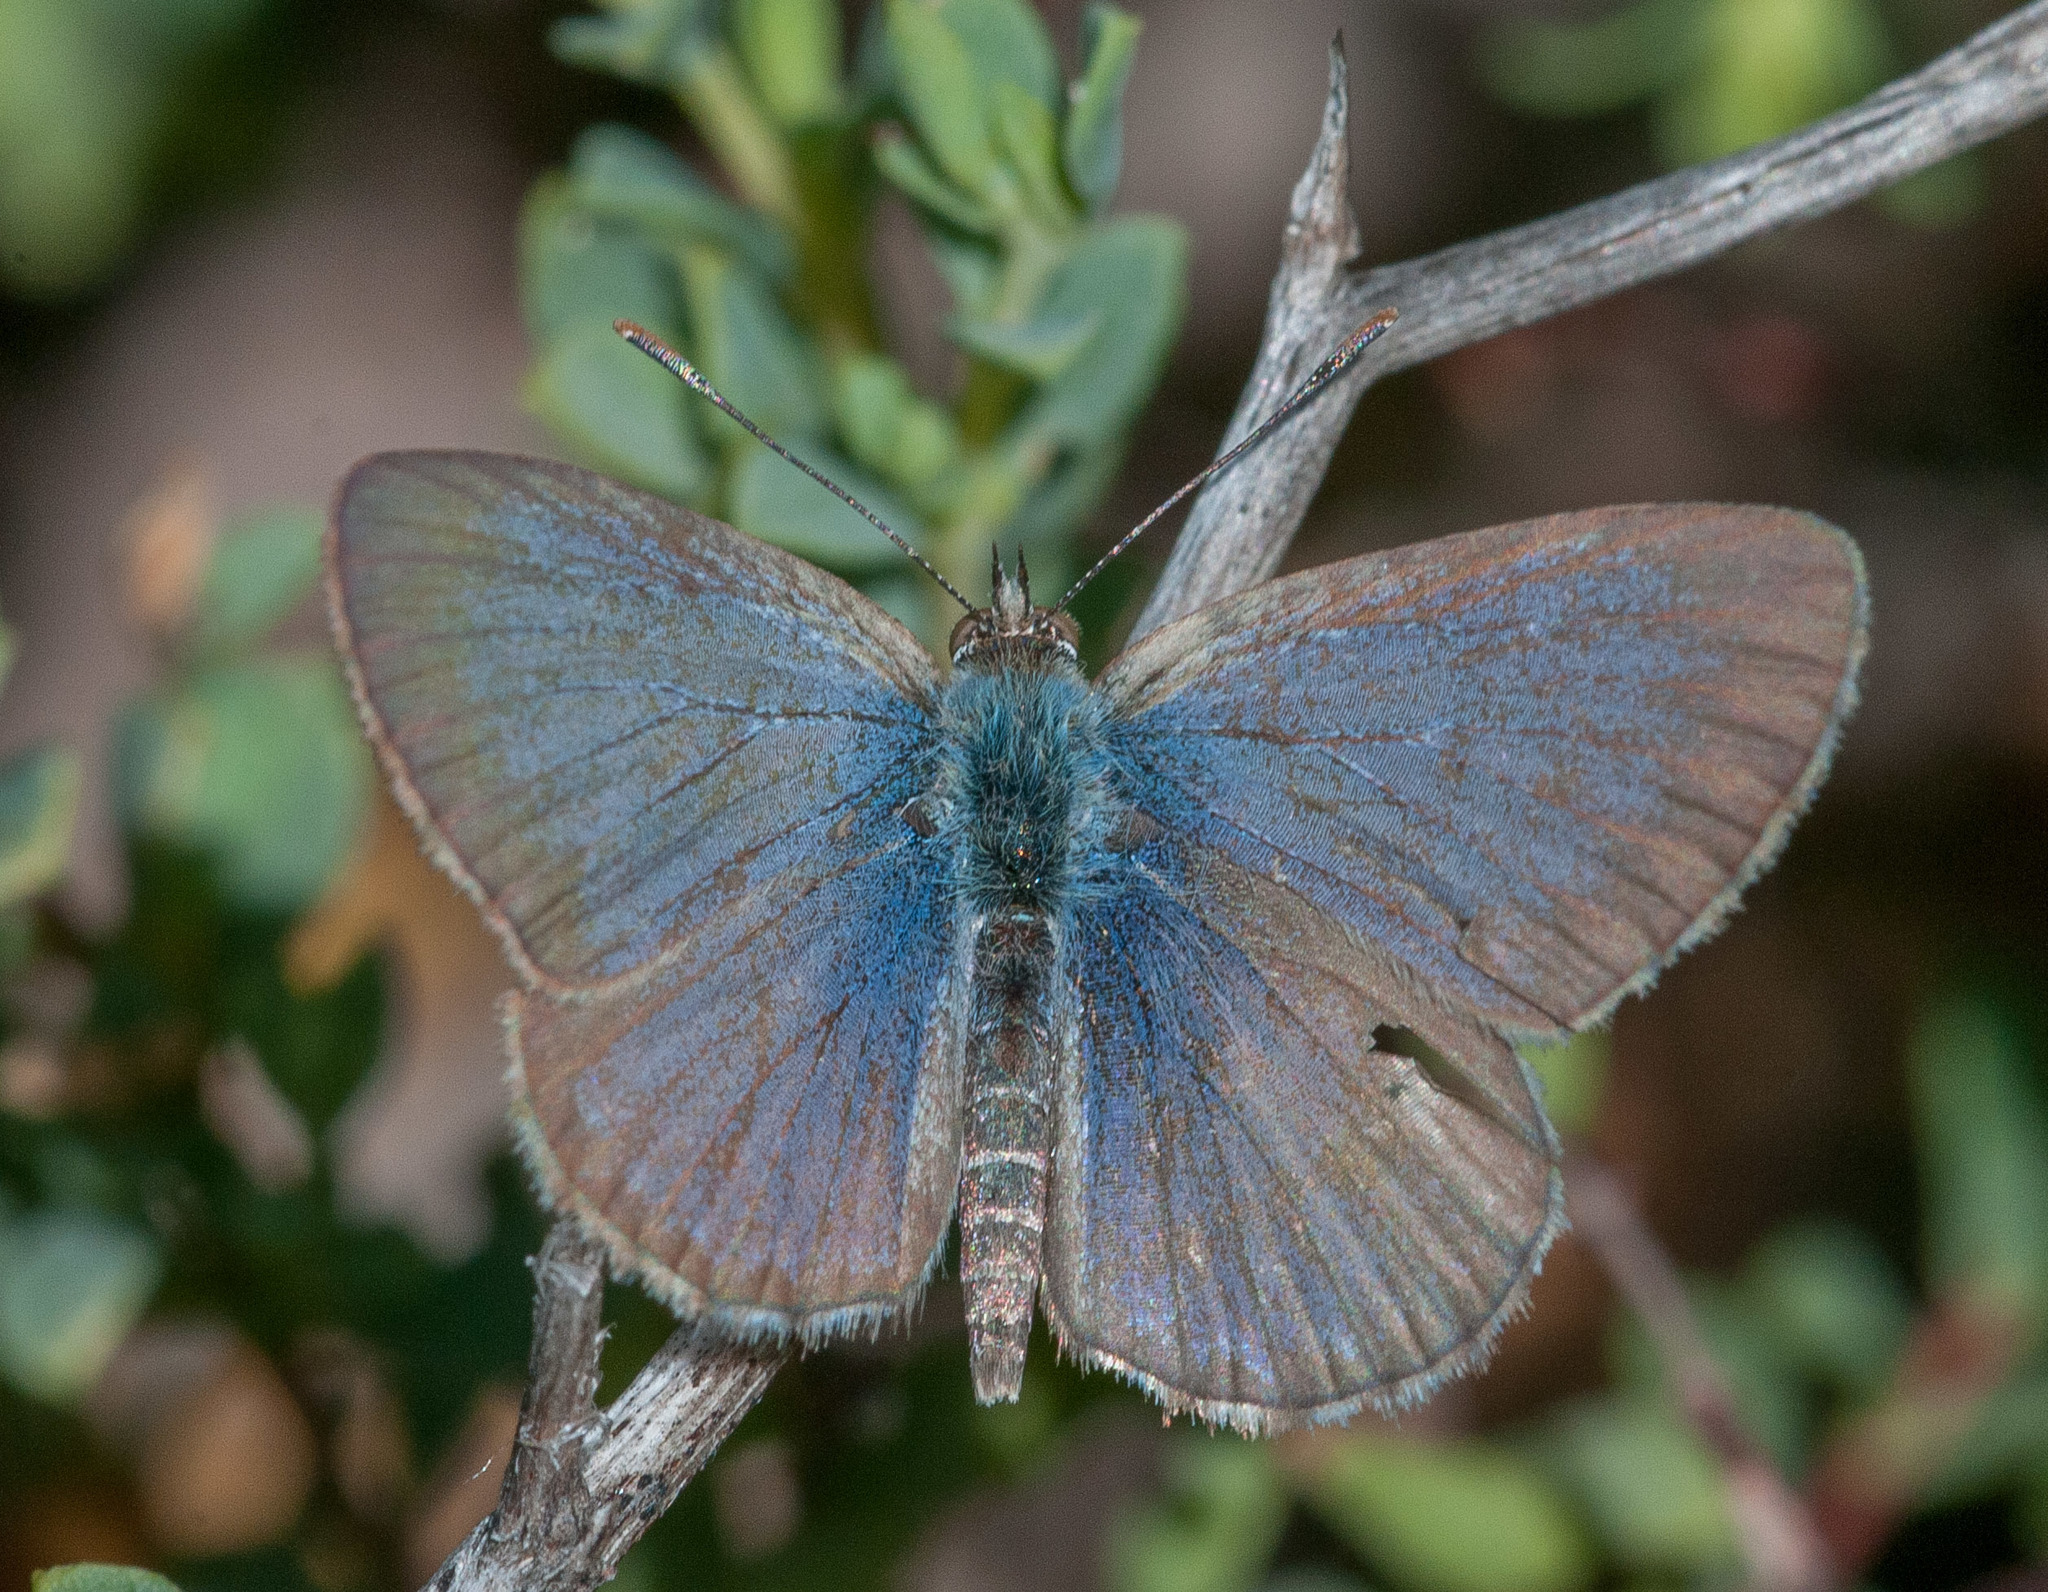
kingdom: Animalia
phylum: Arthropoda
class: Insecta
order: Lepidoptera
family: Lycaenidae
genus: Zizina
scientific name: Zizina labradus
